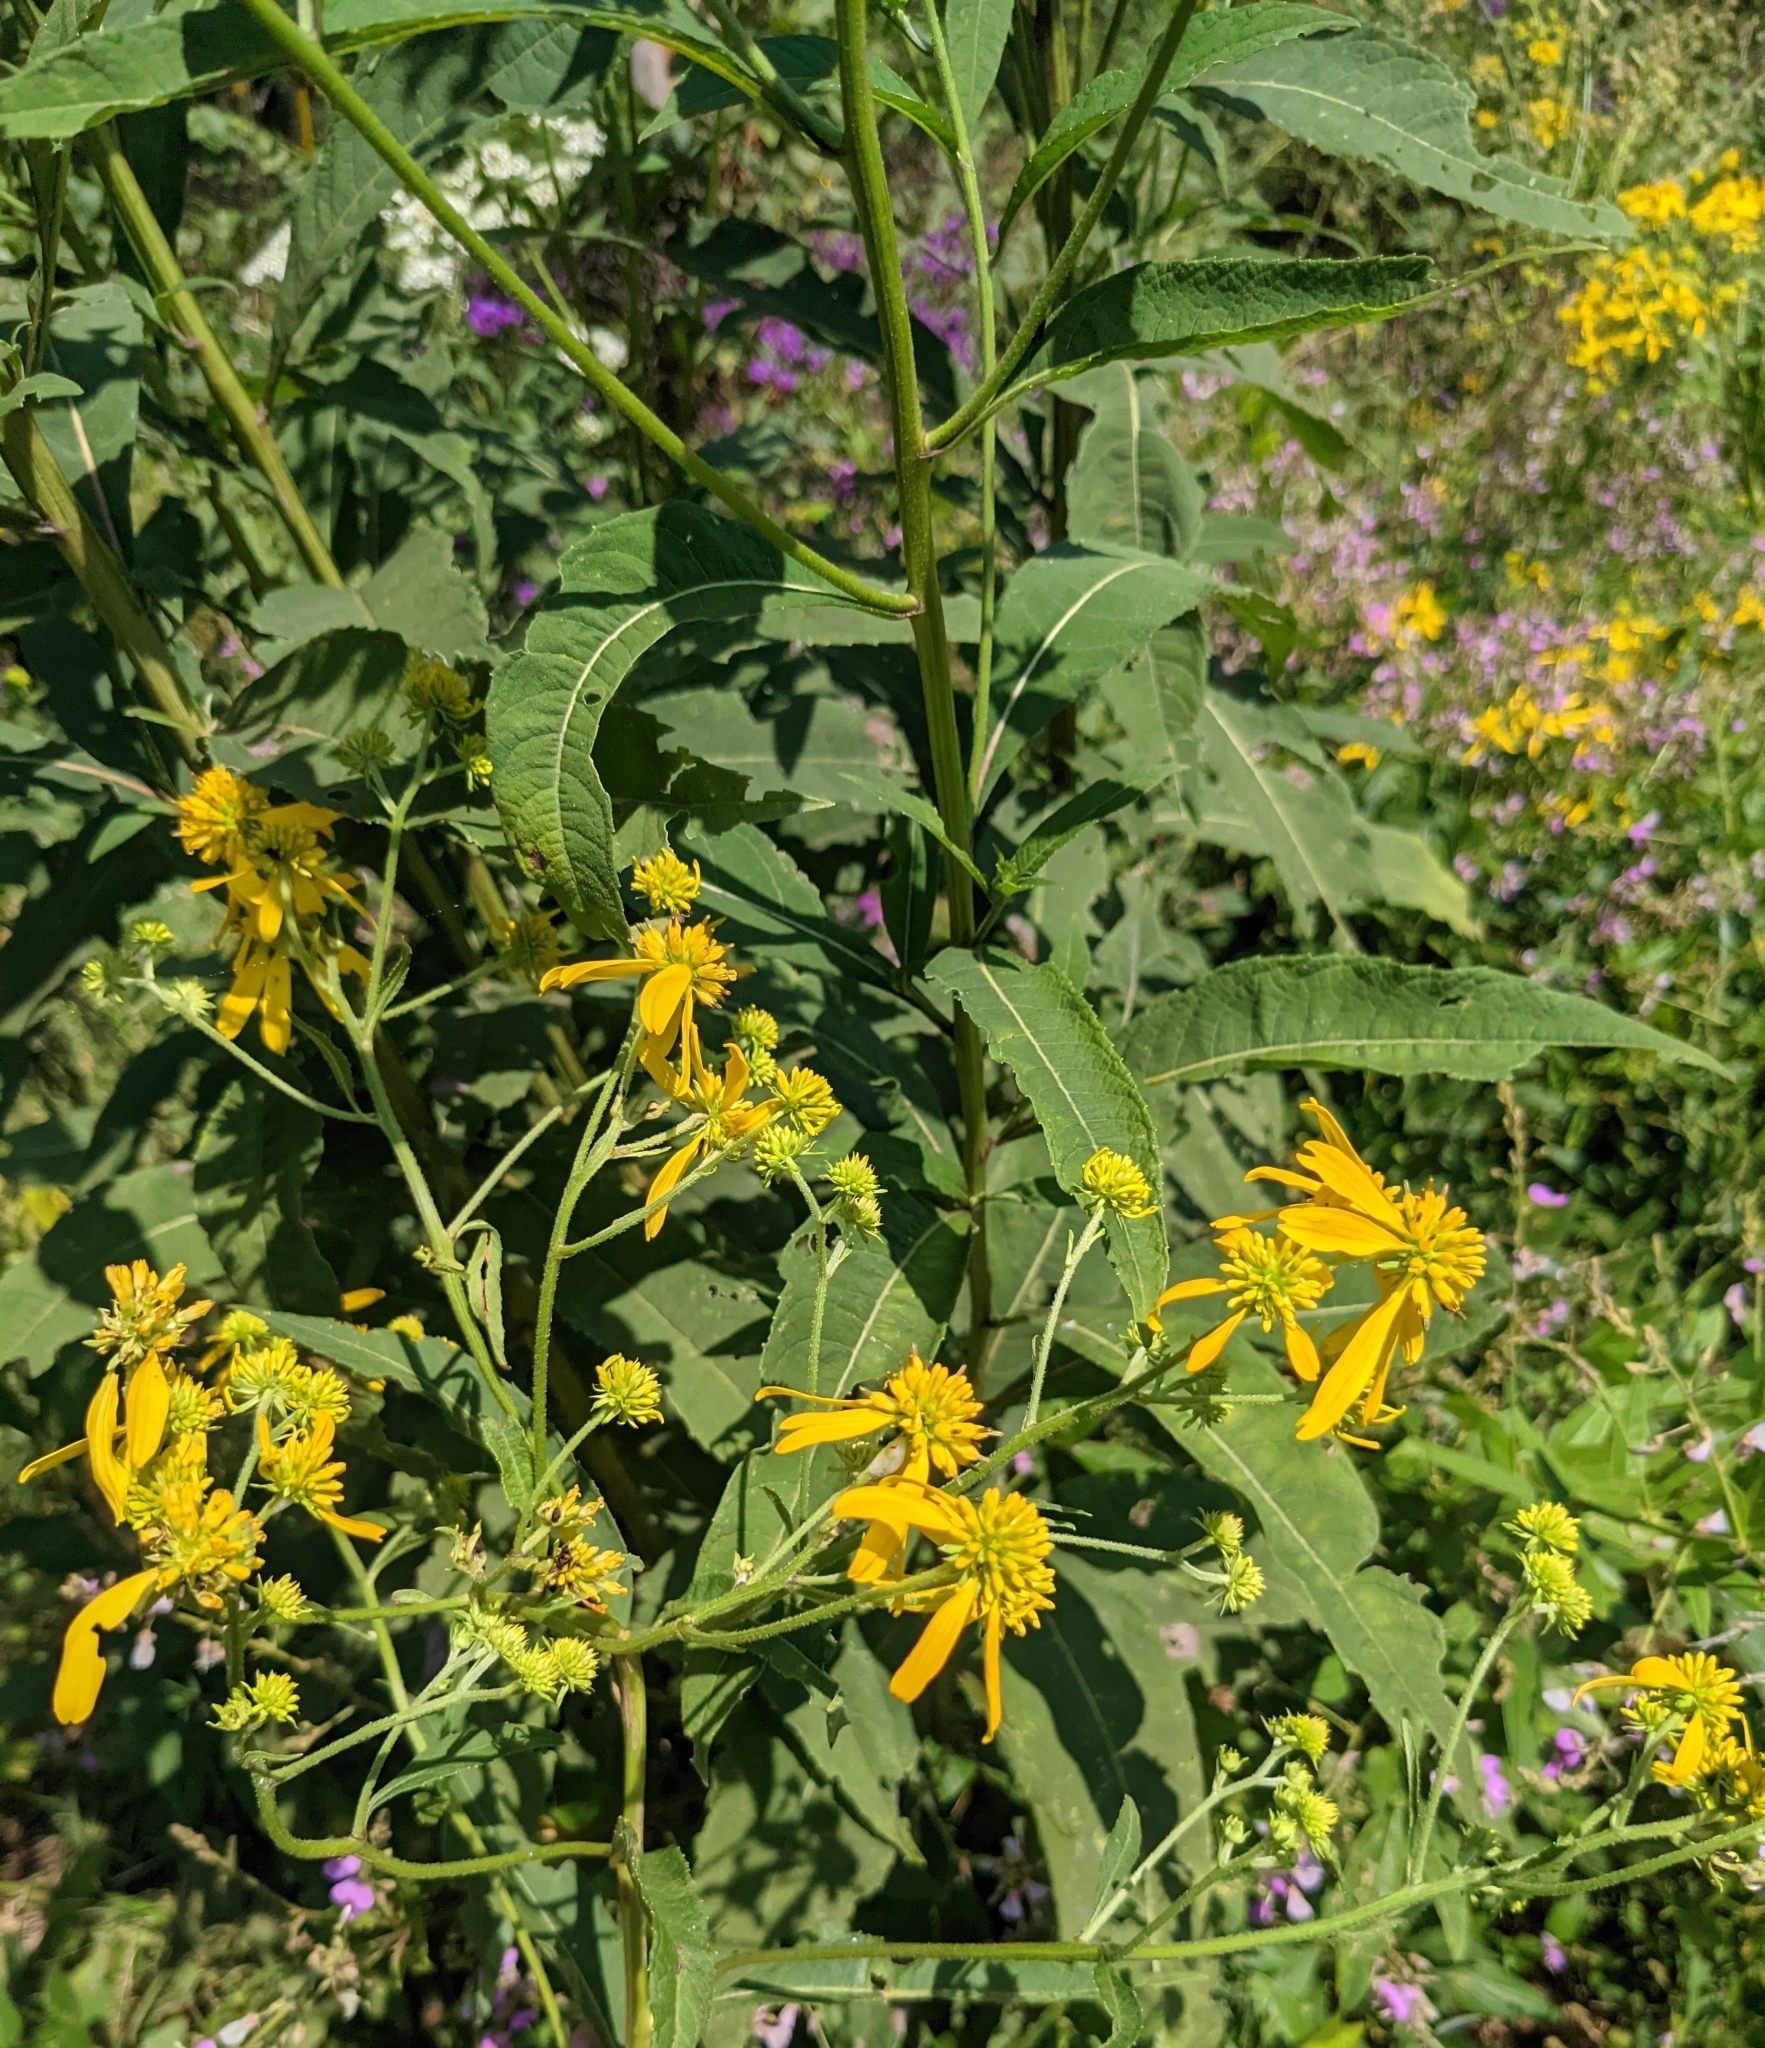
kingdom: Plantae
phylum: Tracheophyta
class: Magnoliopsida
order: Asterales
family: Asteraceae
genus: Verbesina
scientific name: Verbesina alternifolia
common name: Wingstem
